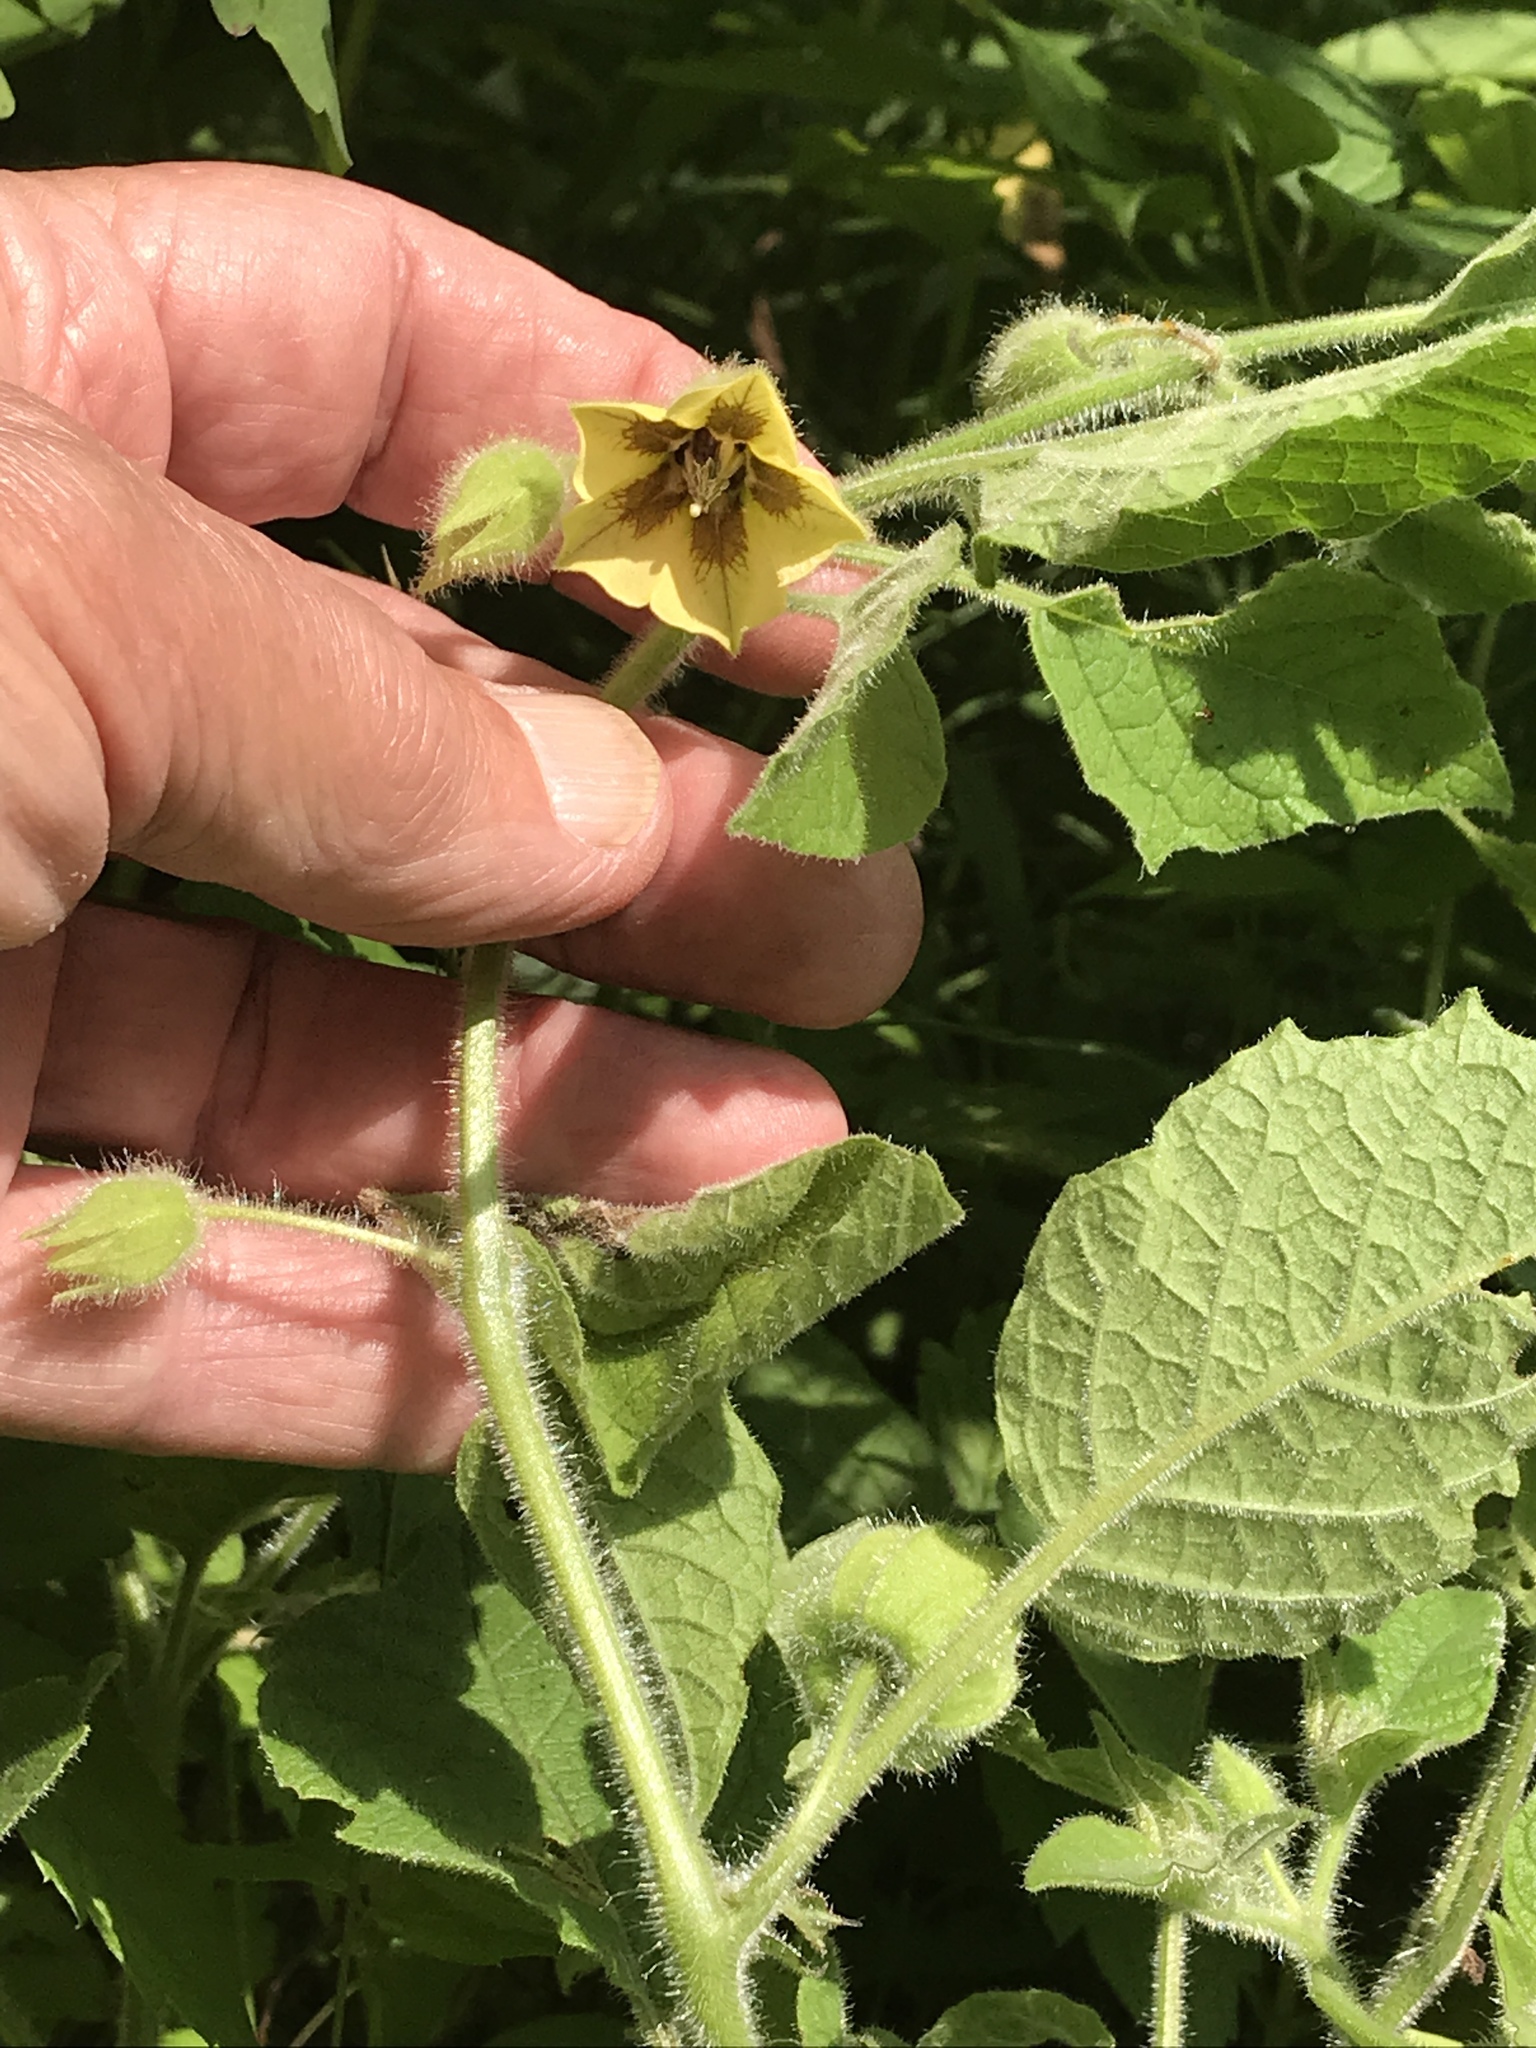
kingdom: Plantae
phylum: Tracheophyta
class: Magnoliopsida
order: Solanales
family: Solanaceae
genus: Physalis
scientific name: Physalis heterophylla
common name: Clammy ground-cherry
